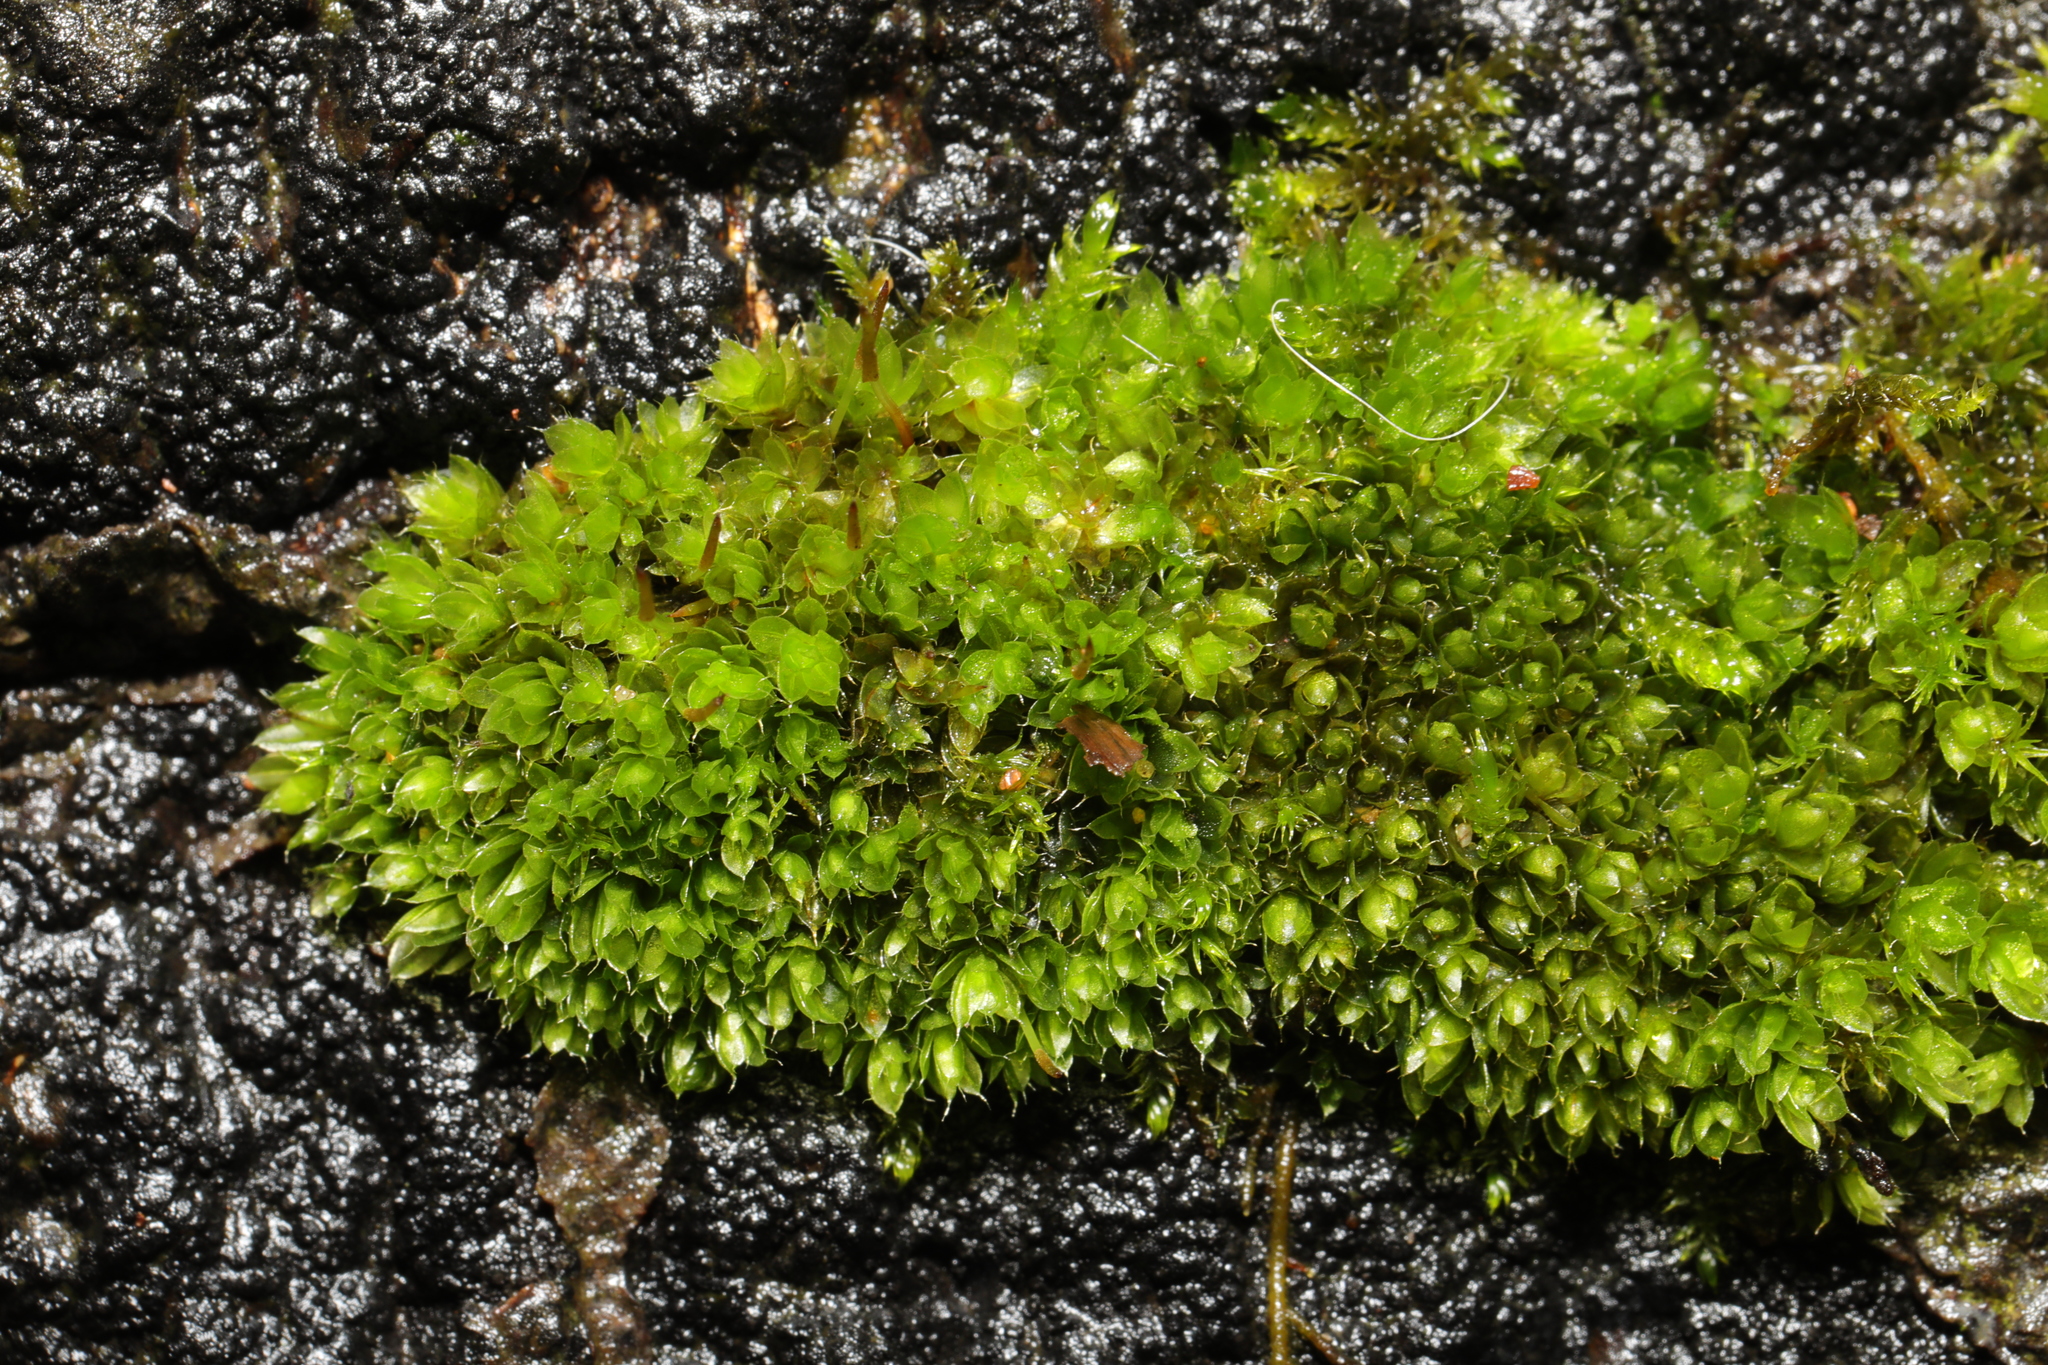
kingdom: Plantae
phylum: Bryophyta
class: Bryopsida
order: Bryales
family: Bryaceae
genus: Rosulabryum
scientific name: Rosulabryum capillare
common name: Capillary thread-moss
